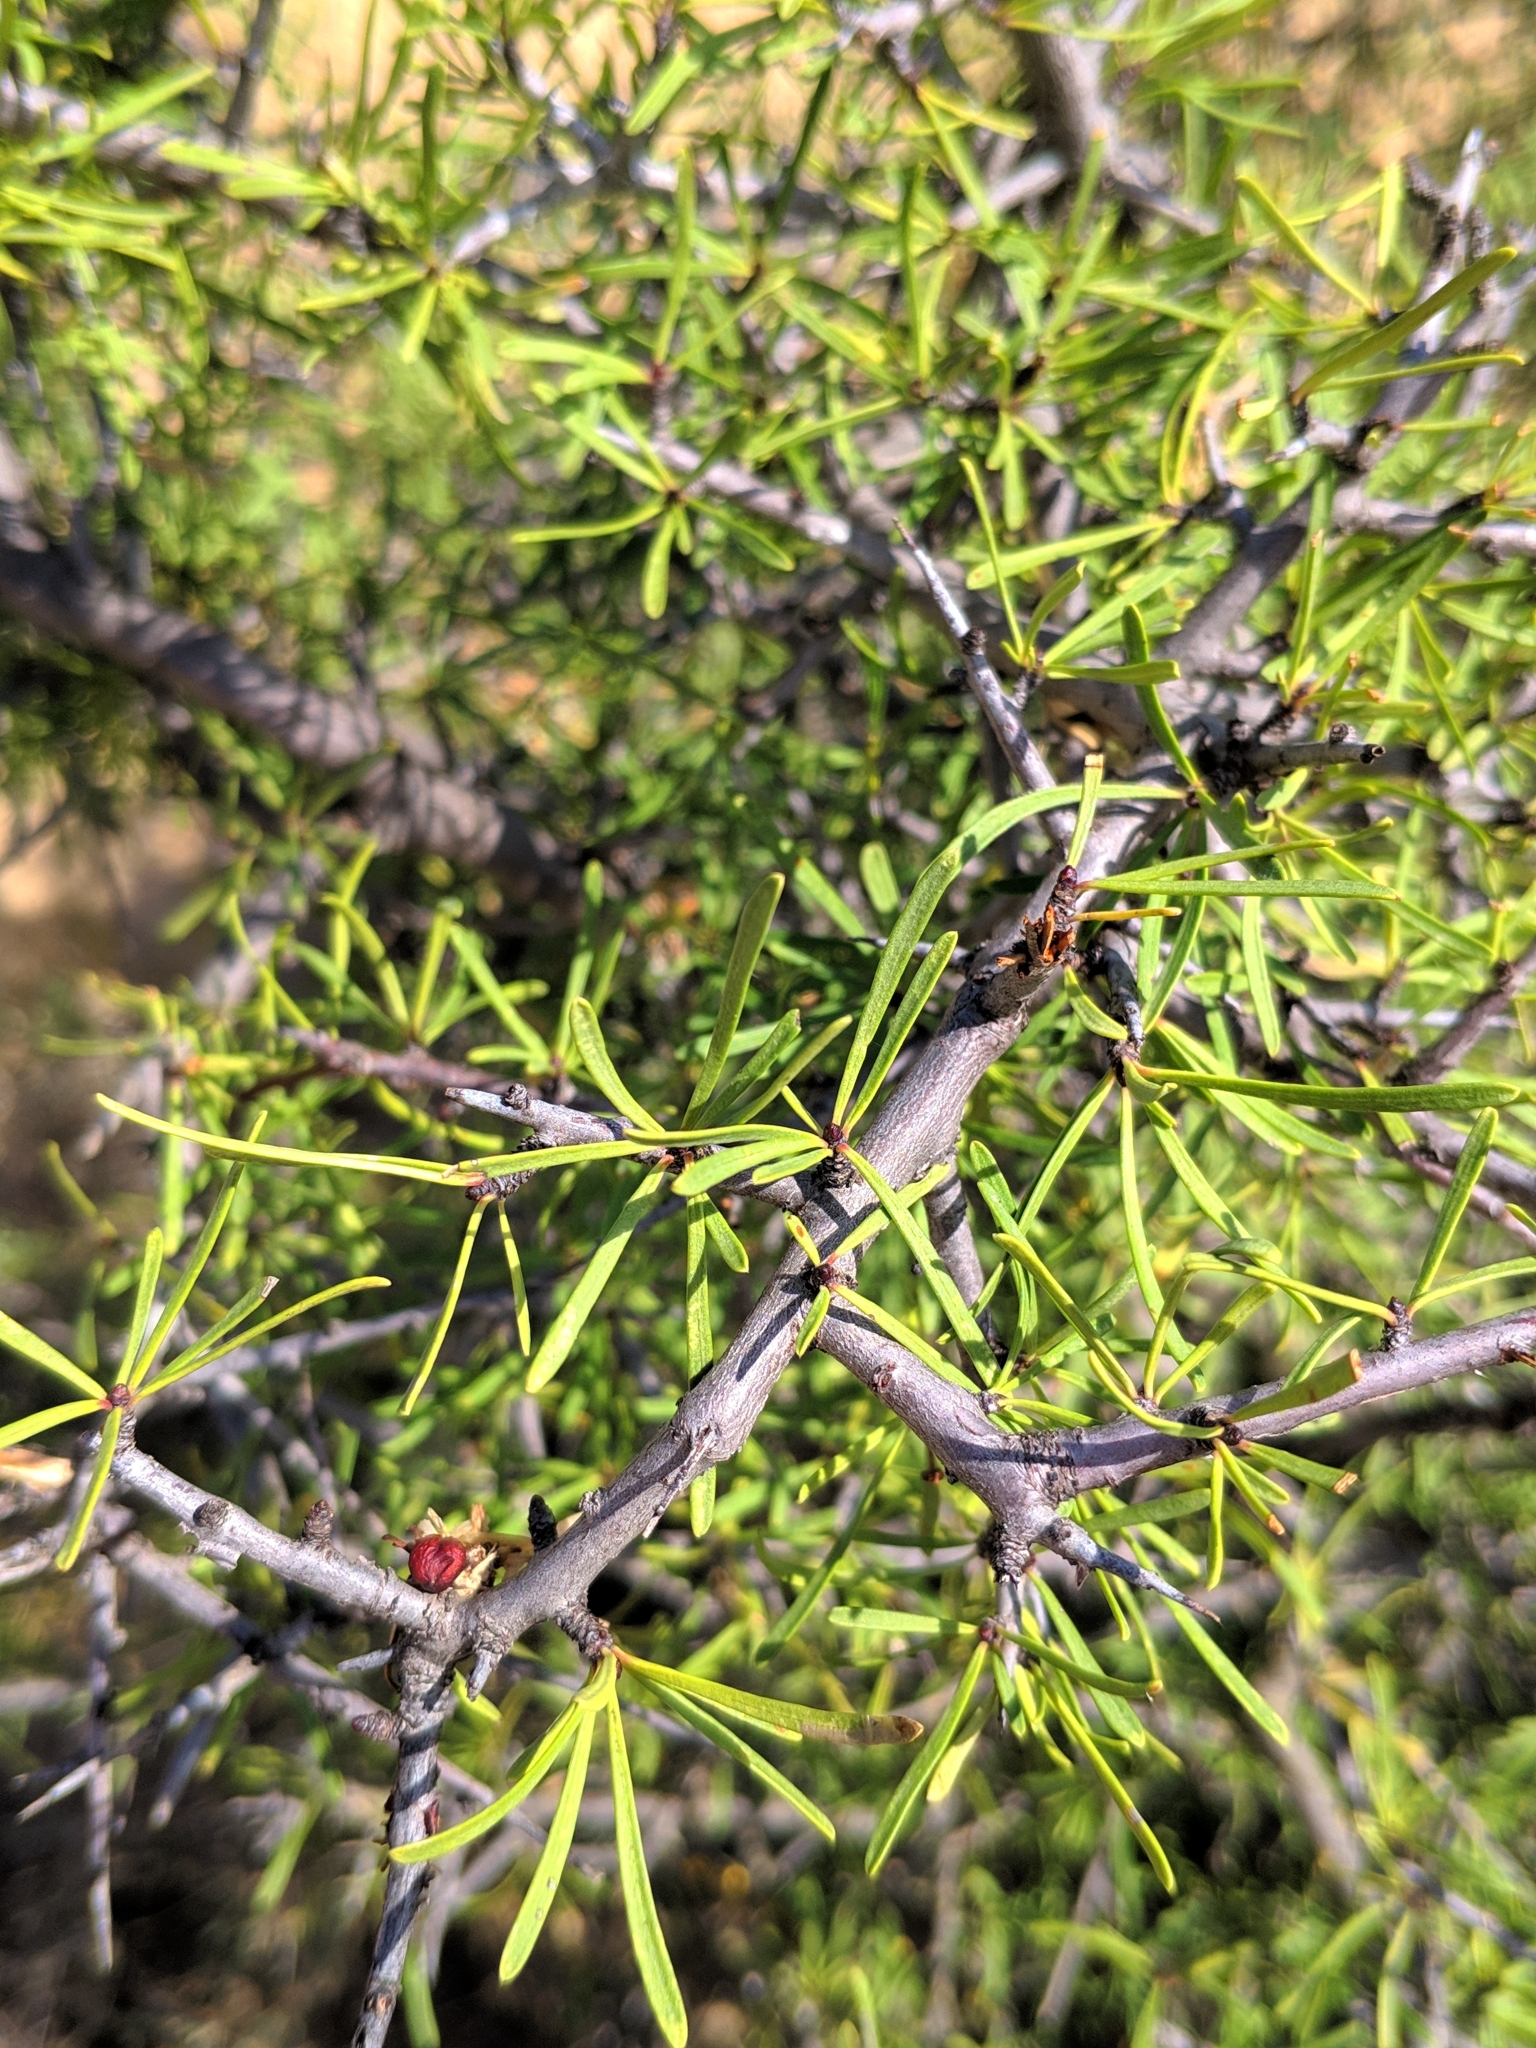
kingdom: Plantae
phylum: Tracheophyta
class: Magnoliopsida
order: Rosales
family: Rhamnaceae
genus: Rhamnus
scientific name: Rhamnus lycioides
